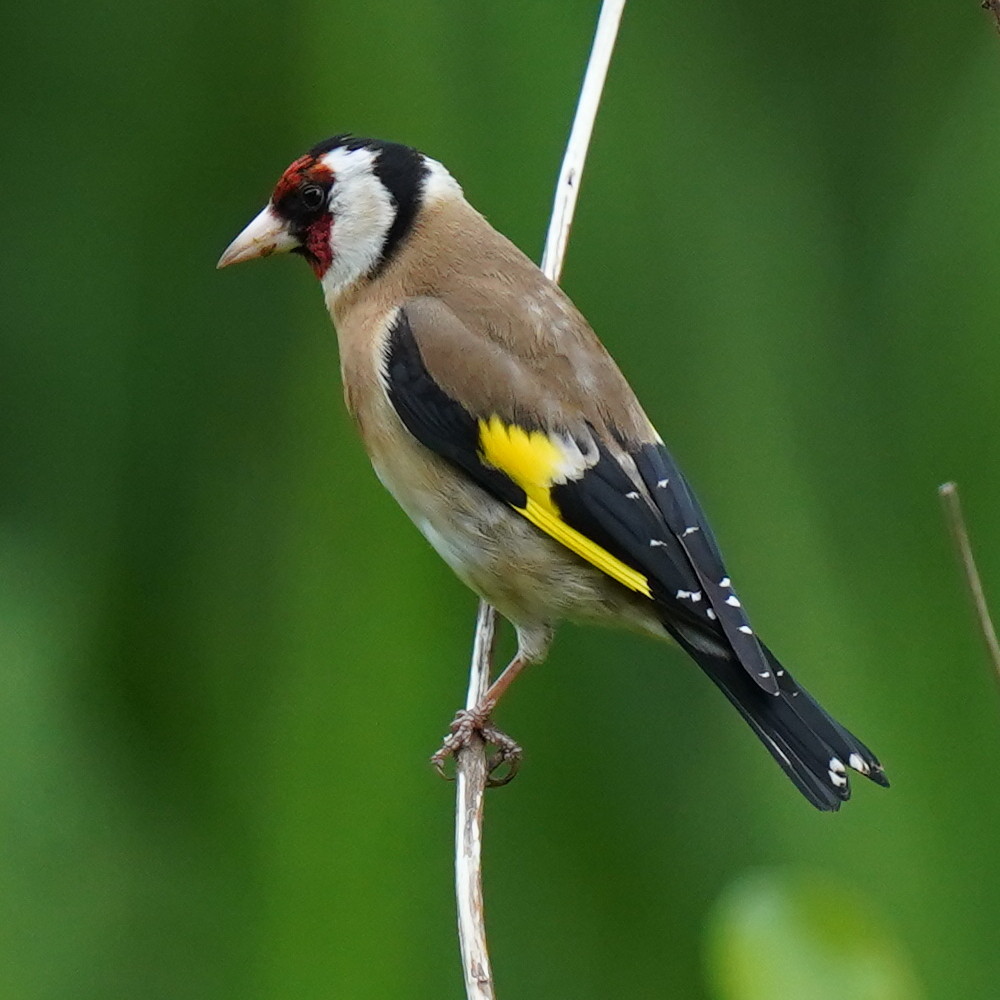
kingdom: Animalia
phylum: Chordata
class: Aves
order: Passeriformes
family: Fringillidae
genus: Carduelis
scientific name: Carduelis carduelis
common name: European goldfinch
